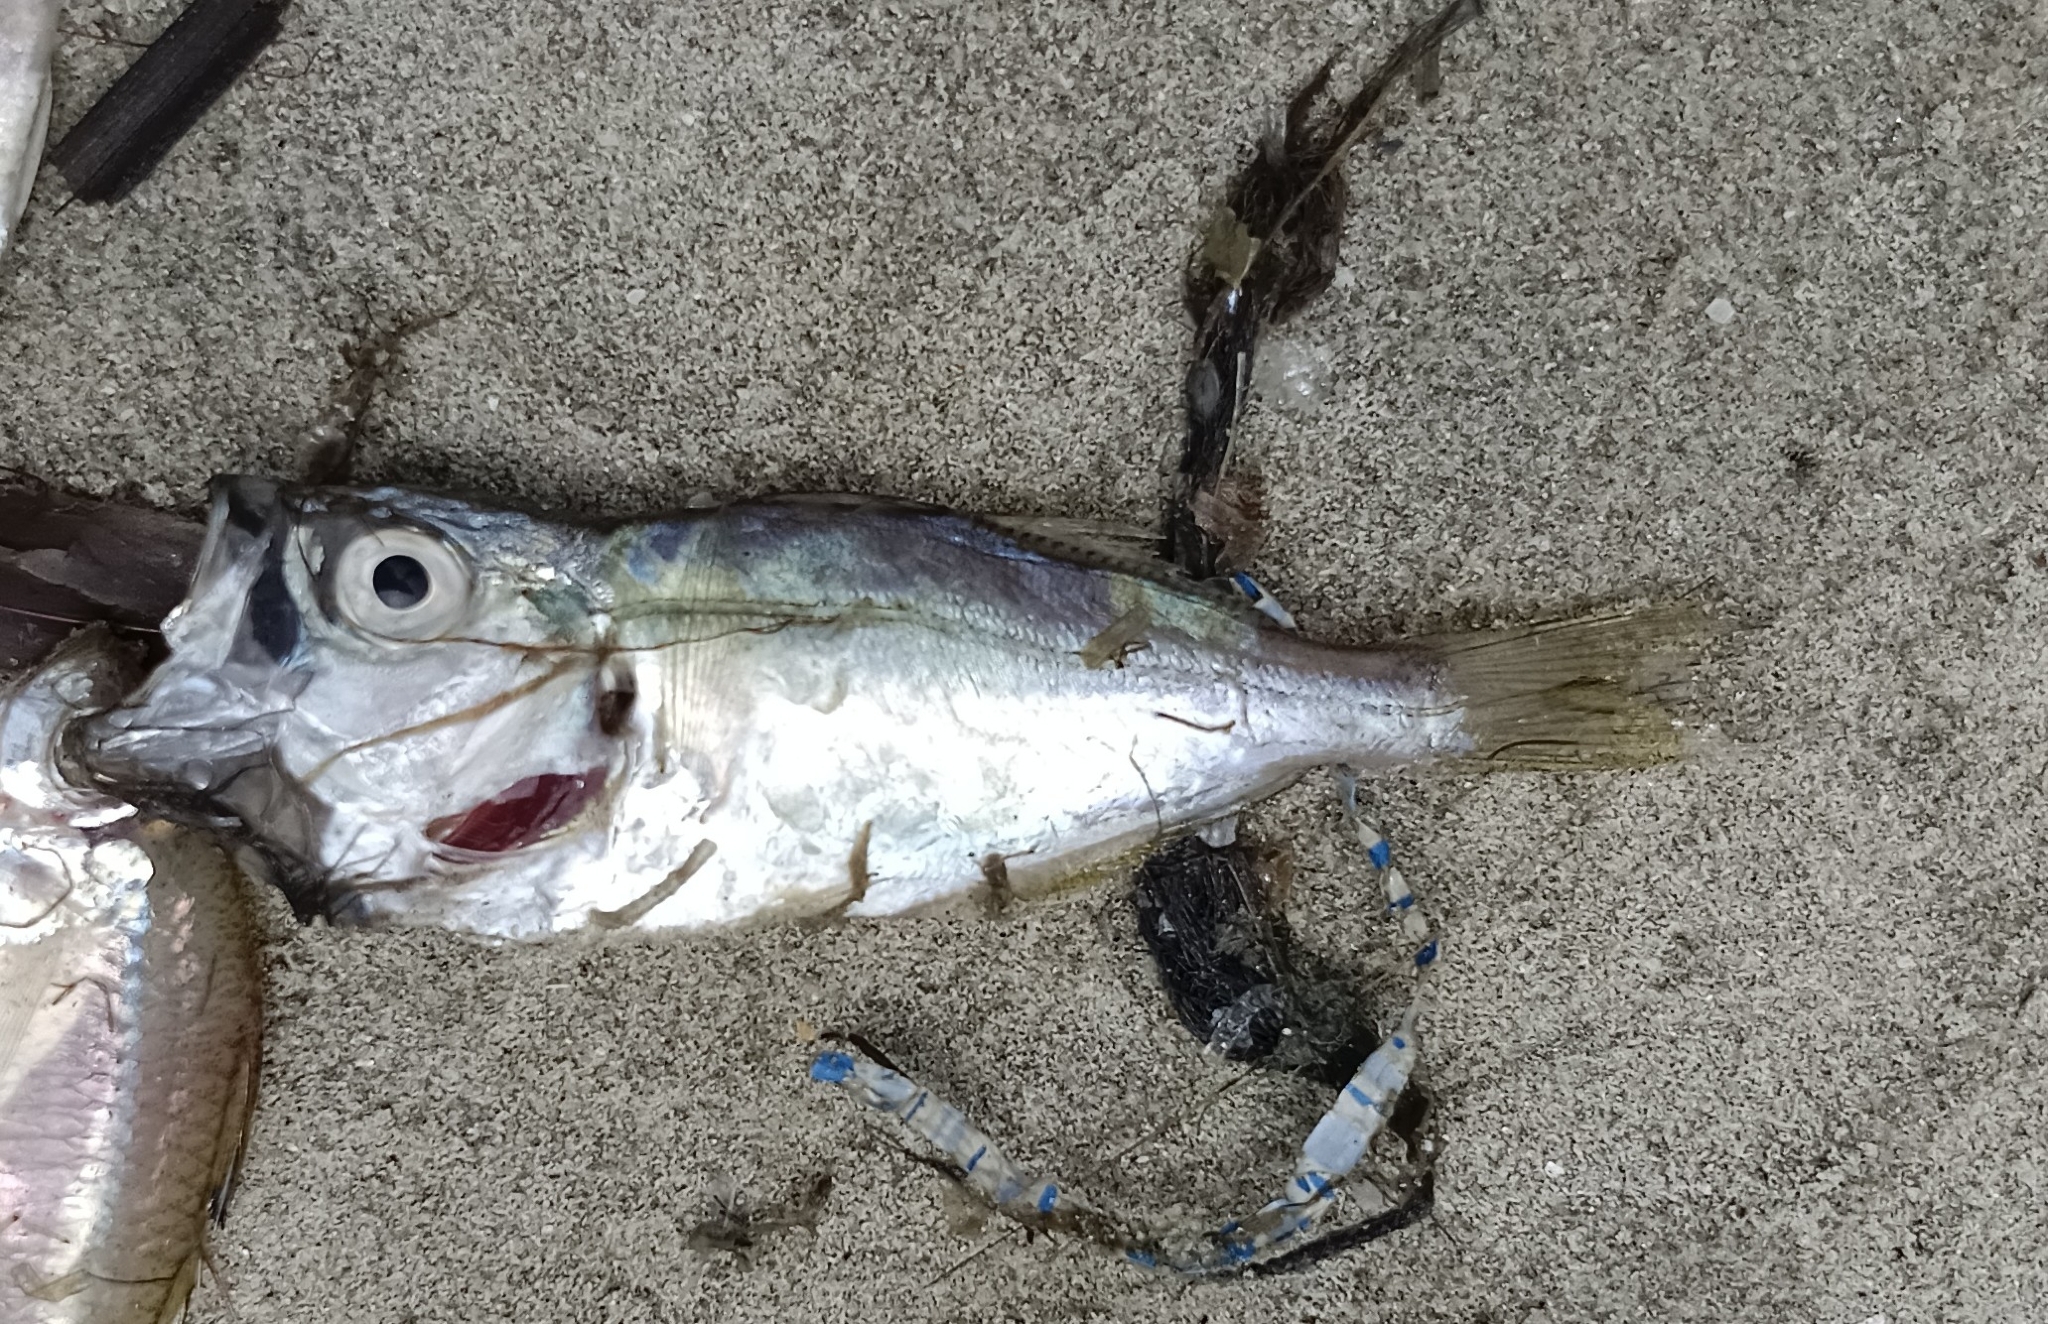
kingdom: Animalia
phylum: Chordata
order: Perciformes
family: Lactariidae
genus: Lactarius
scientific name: Lactarius lactarius
